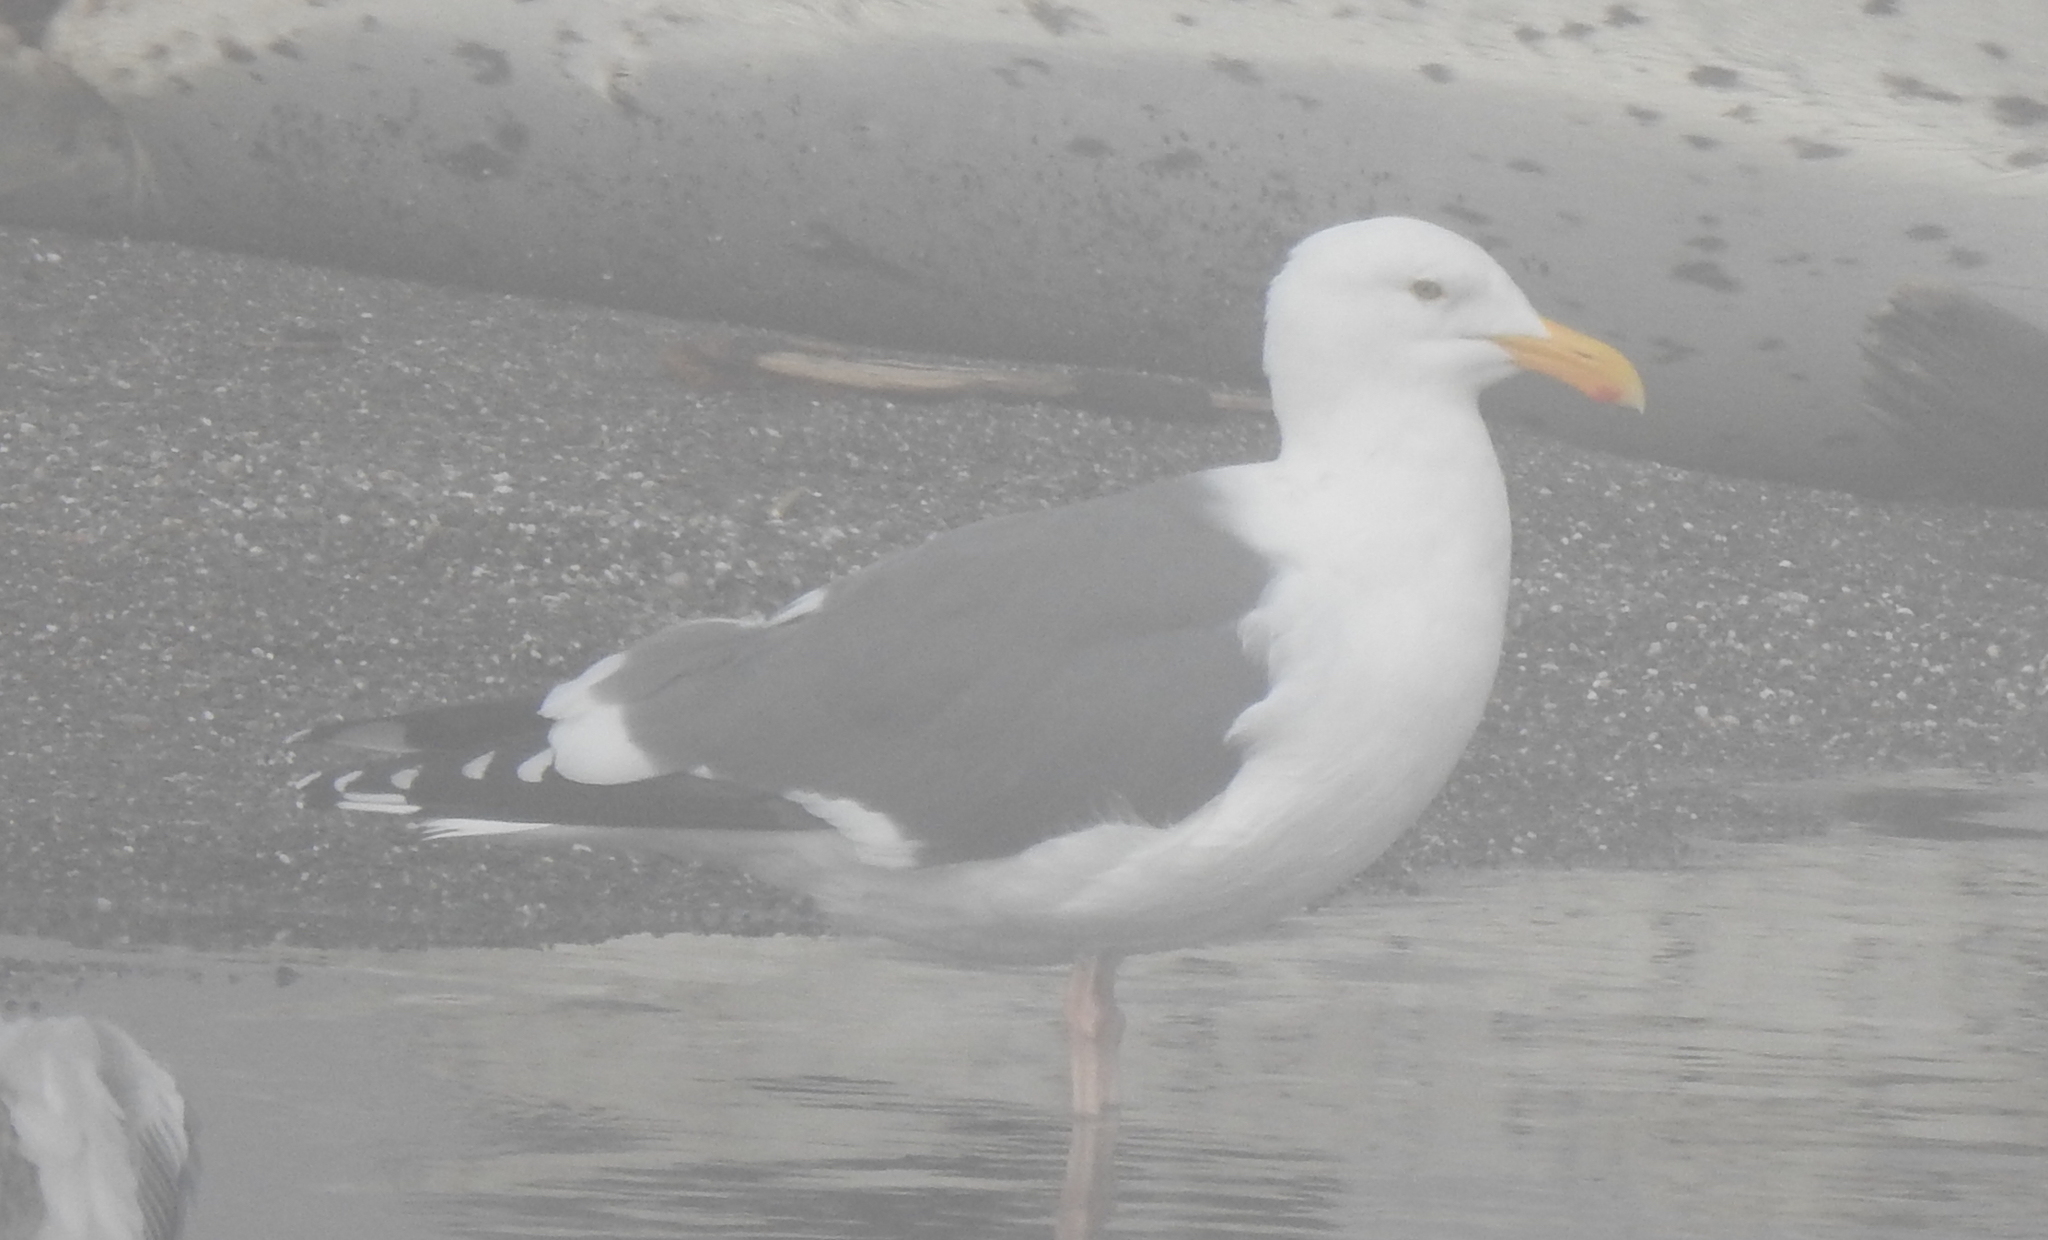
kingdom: Animalia
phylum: Chordata
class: Aves
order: Charadriiformes
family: Laridae
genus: Larus
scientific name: Larus occidentalis
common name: Western gull
